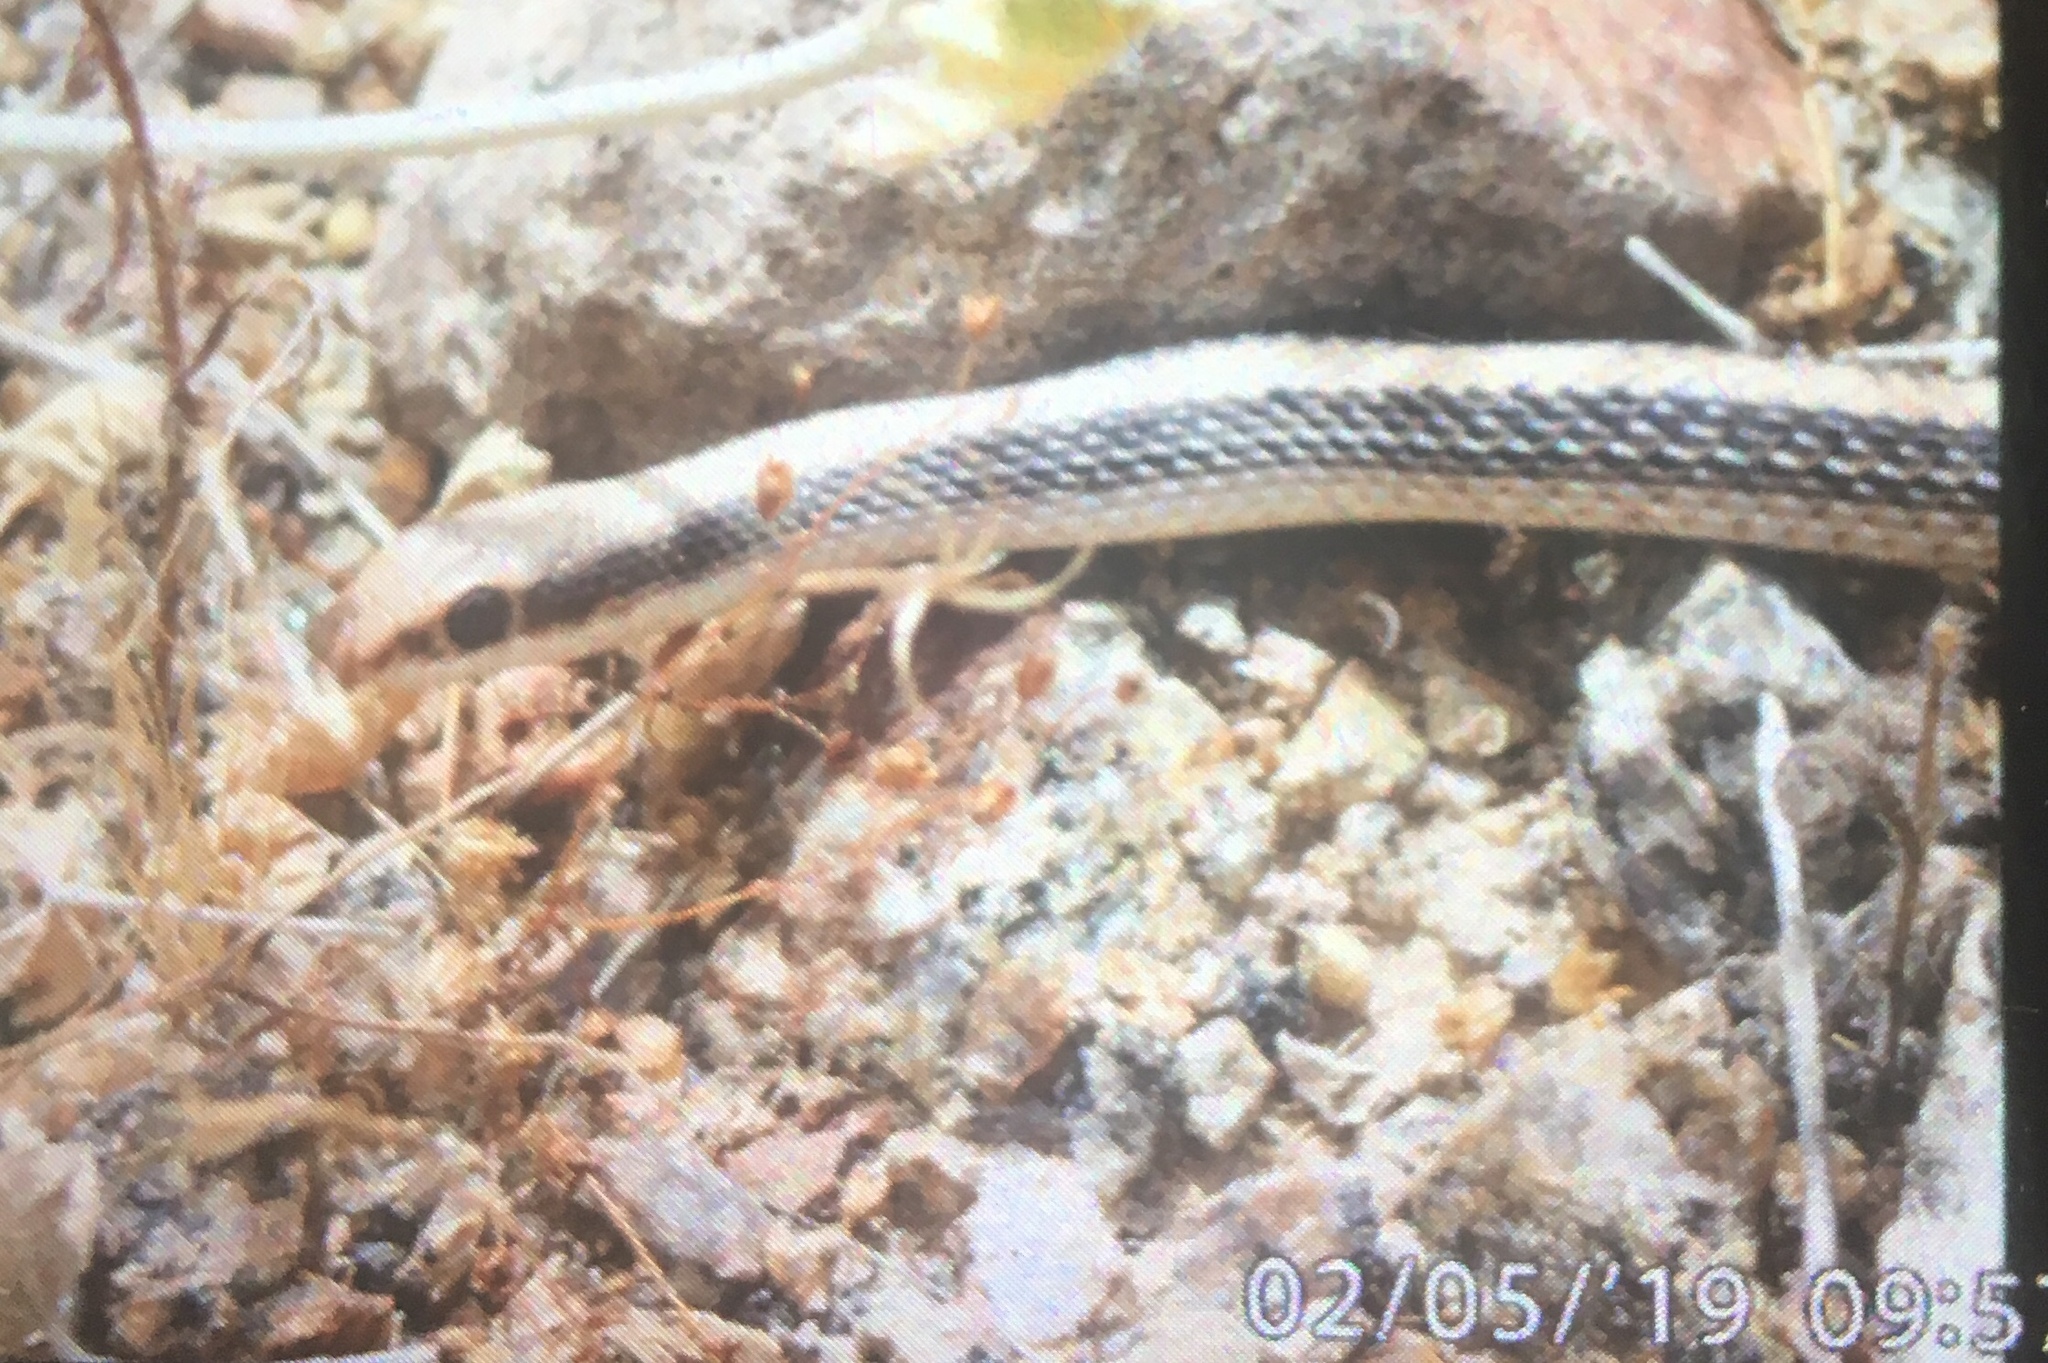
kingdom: Animalia
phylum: Chordata
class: Squamata
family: Colubridae
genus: Salvadora
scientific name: Salvadora hexalepis
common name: Western patchnose snake
